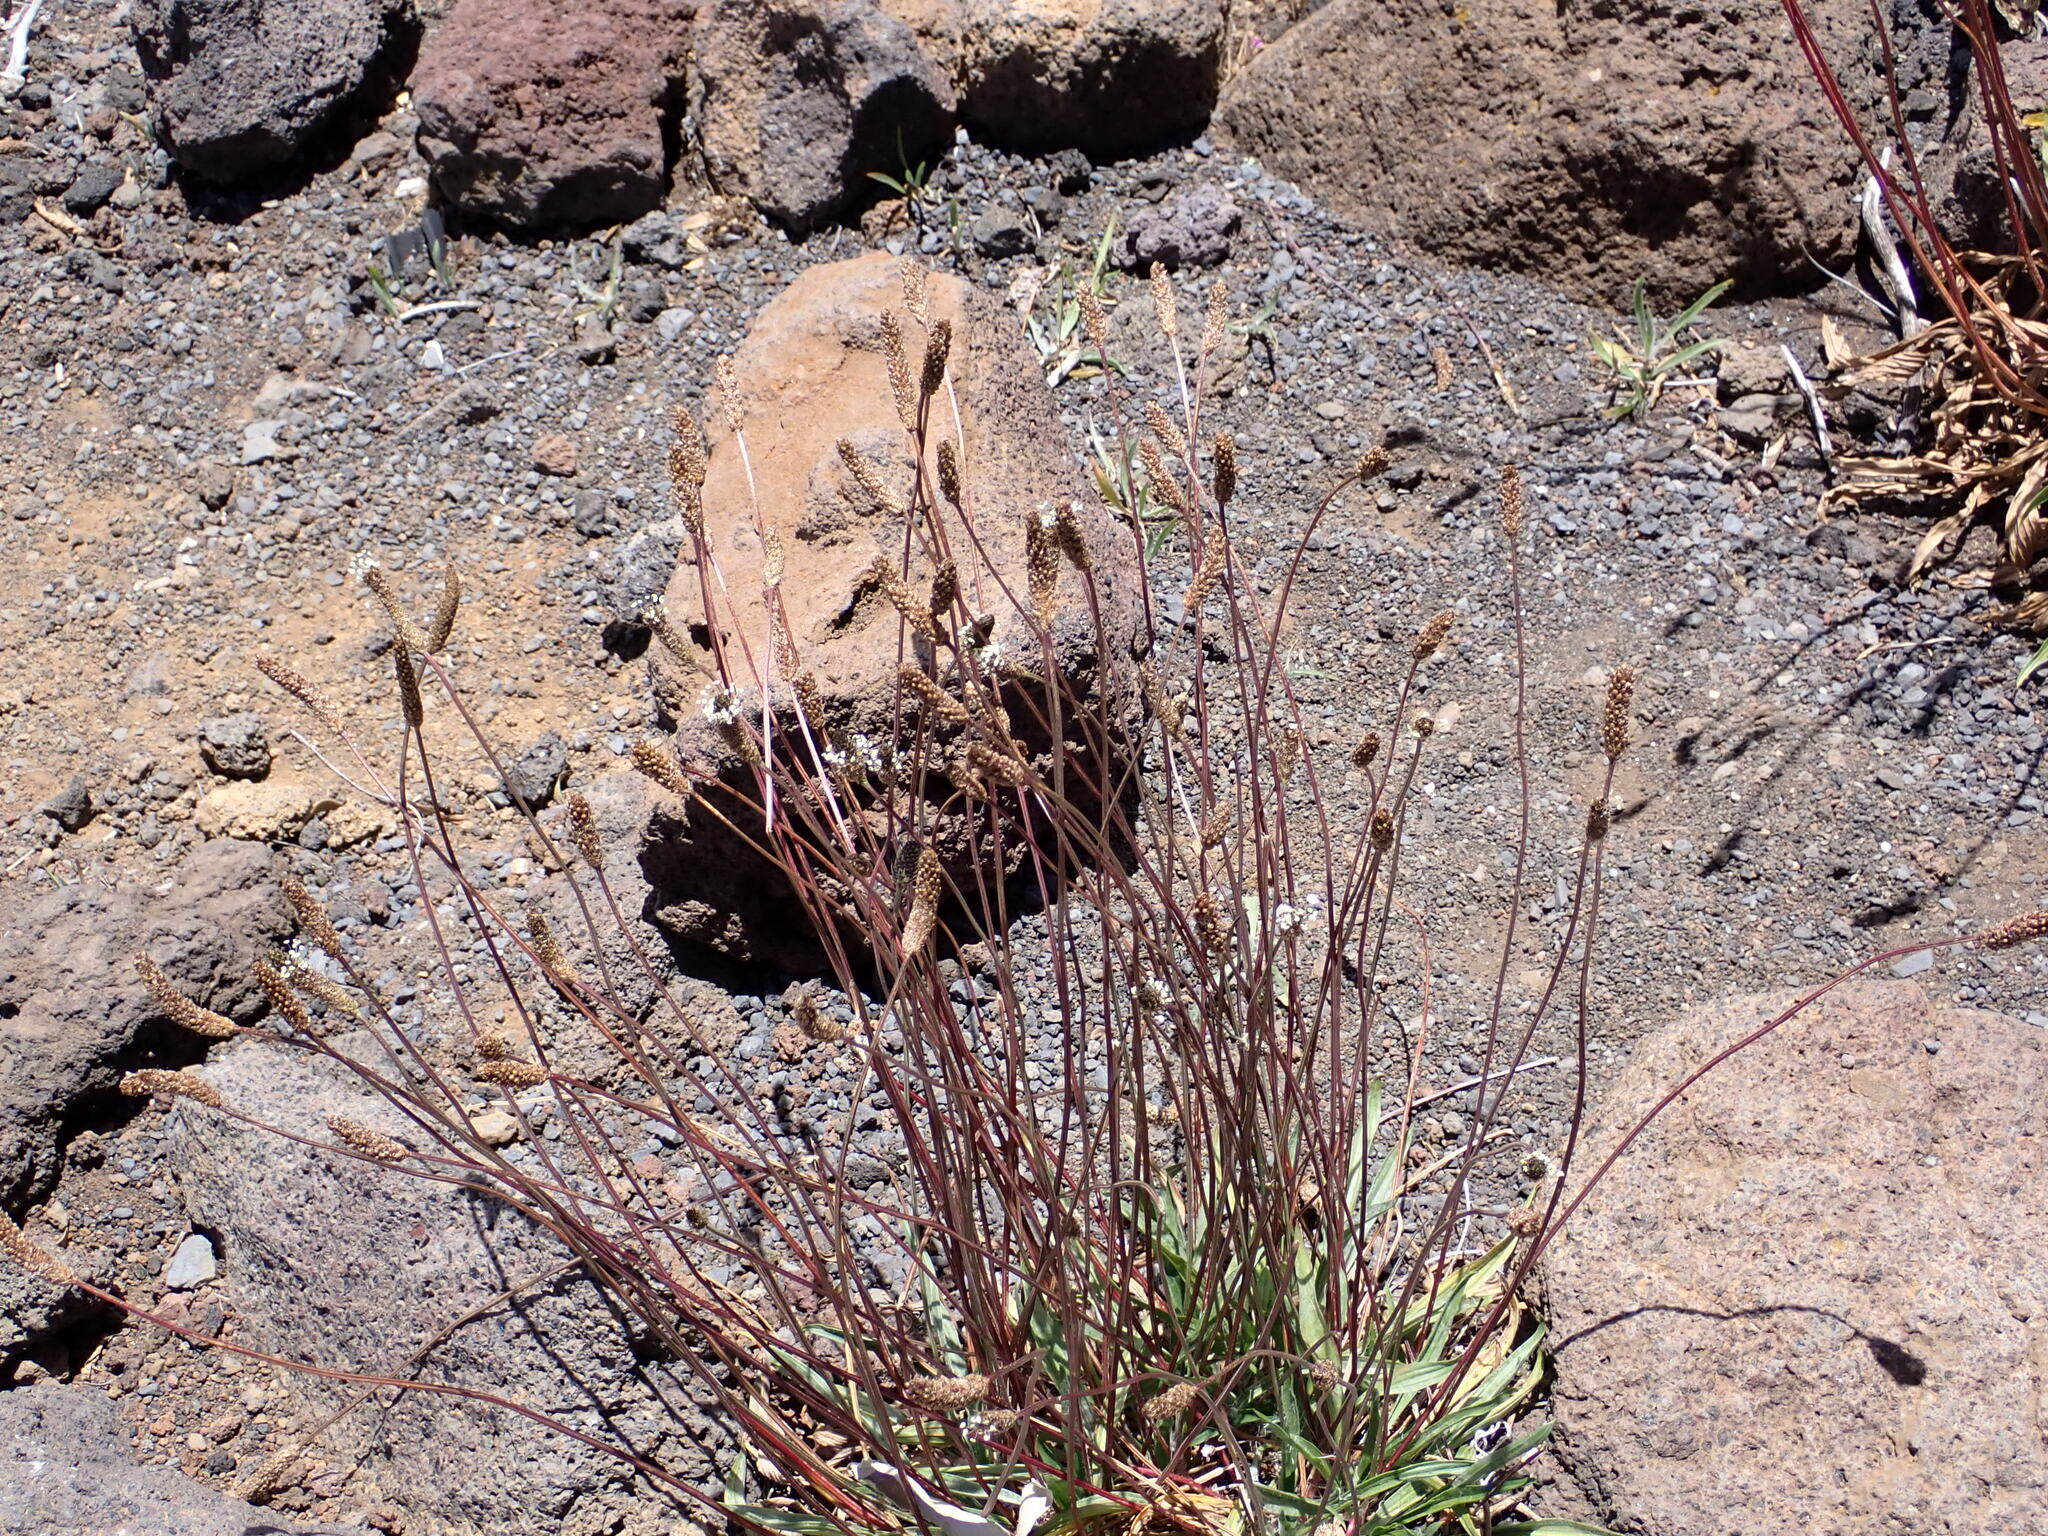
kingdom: Plantae
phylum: Tracheophyta
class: Magnoliopsida
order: Lamiales
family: Plantaginaceae
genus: Plantago
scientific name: Plantago lanceolata
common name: Ribwort plantain
